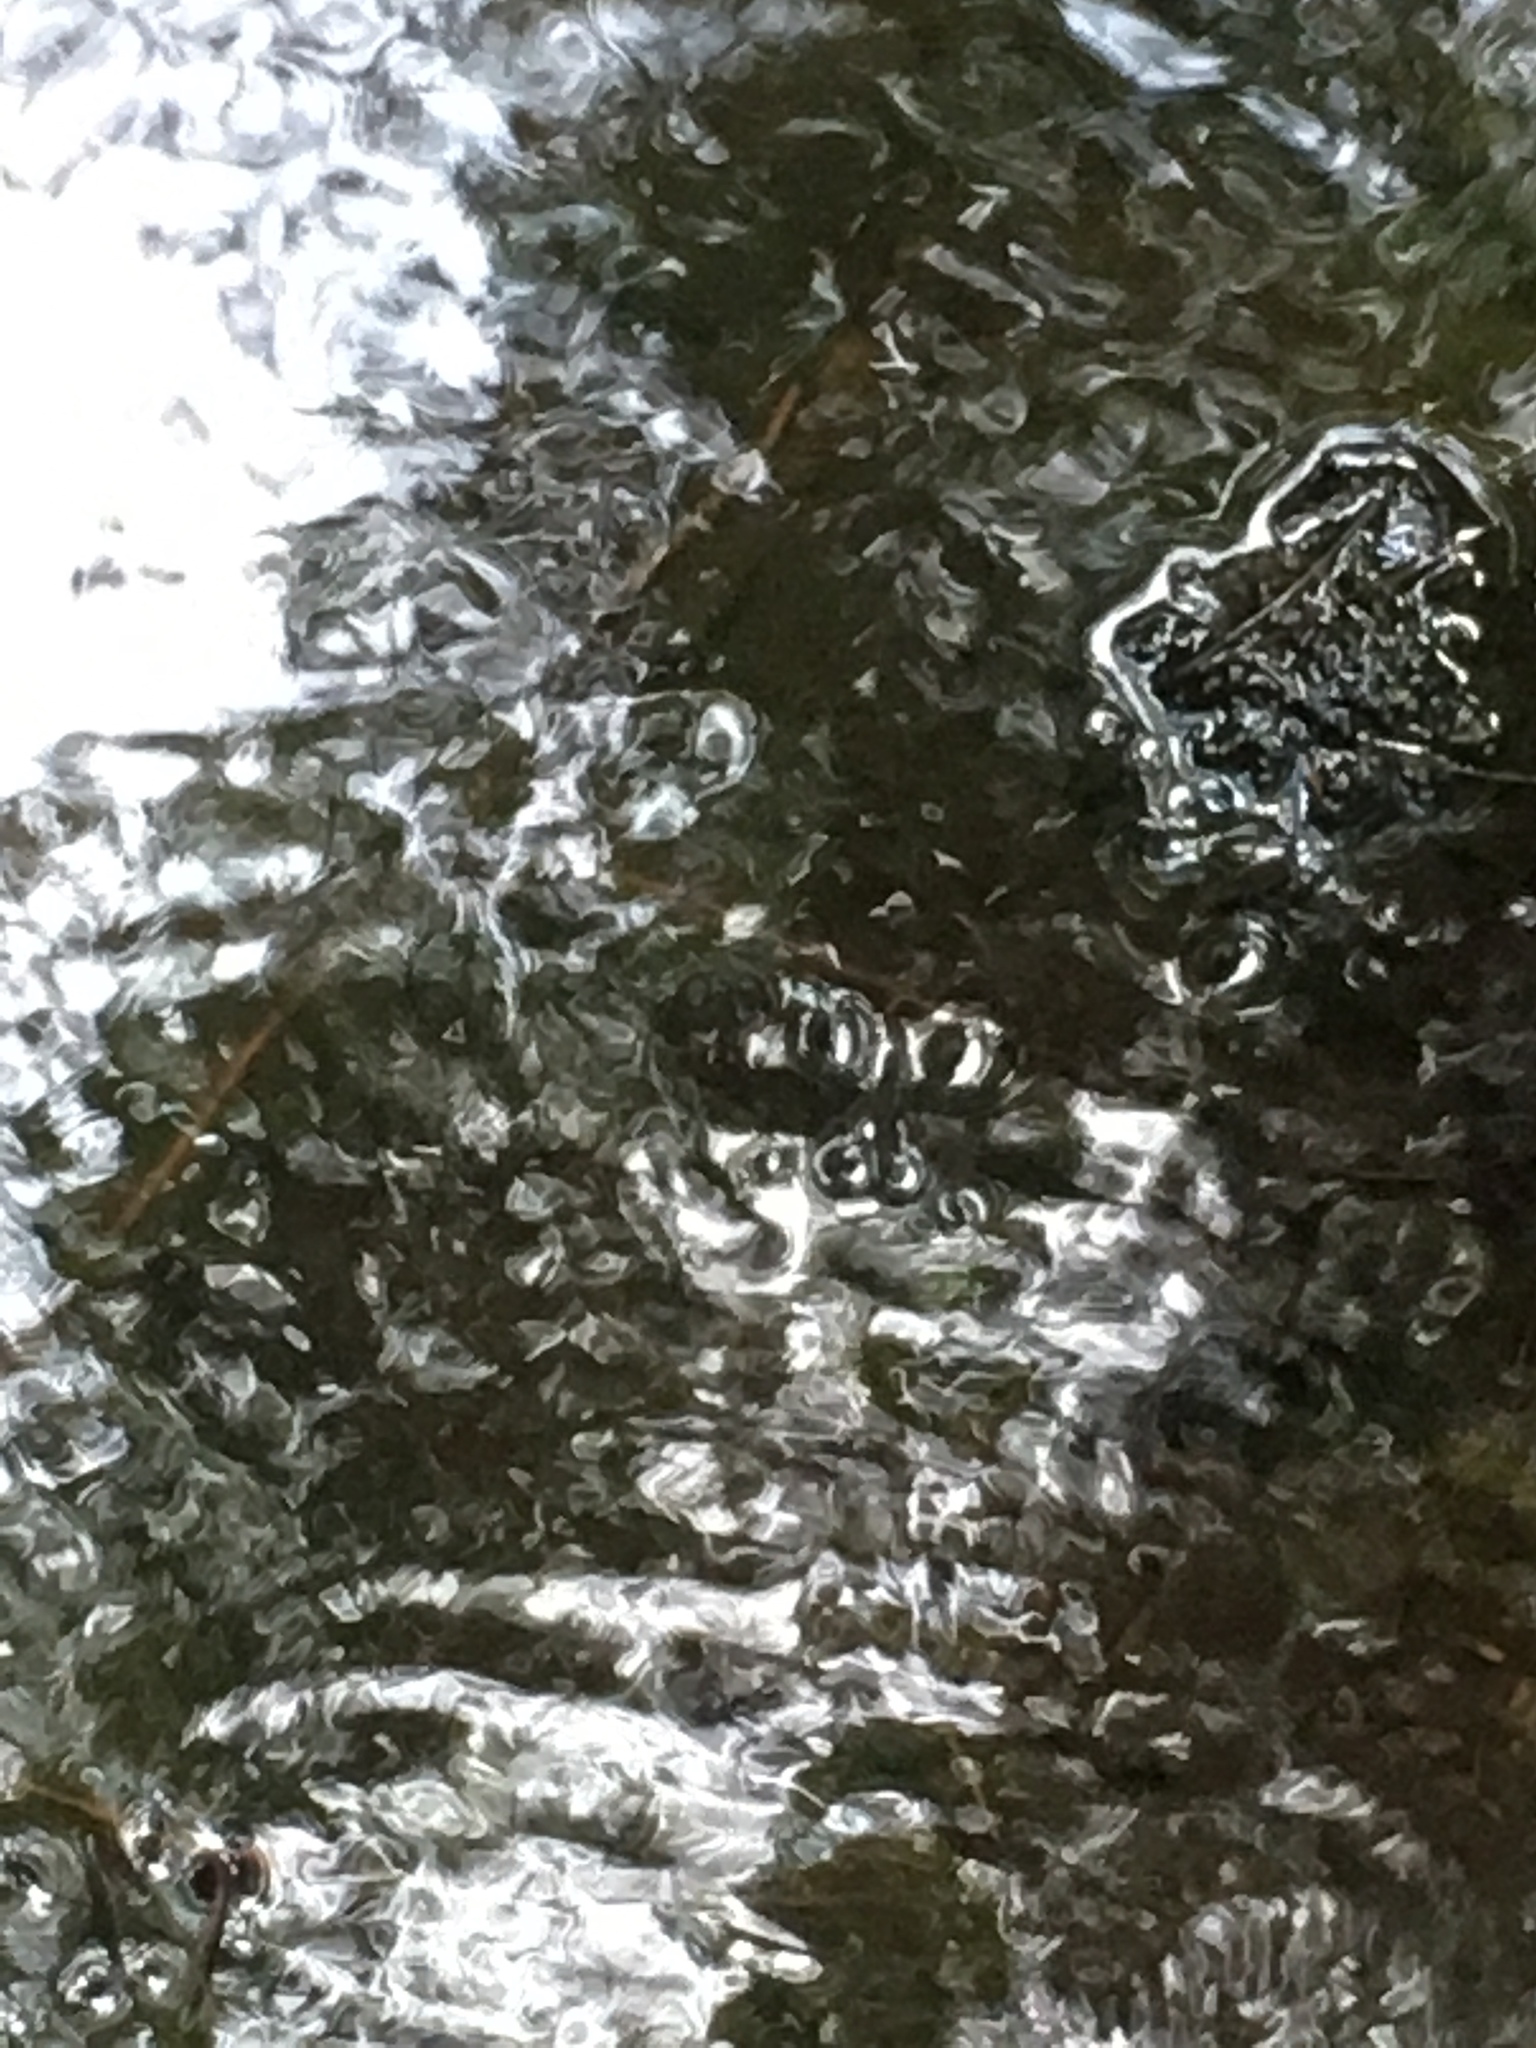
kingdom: Animalia
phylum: Arthropoda
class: Insecta
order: Hemiptera
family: Gerridae
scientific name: Gerridae
